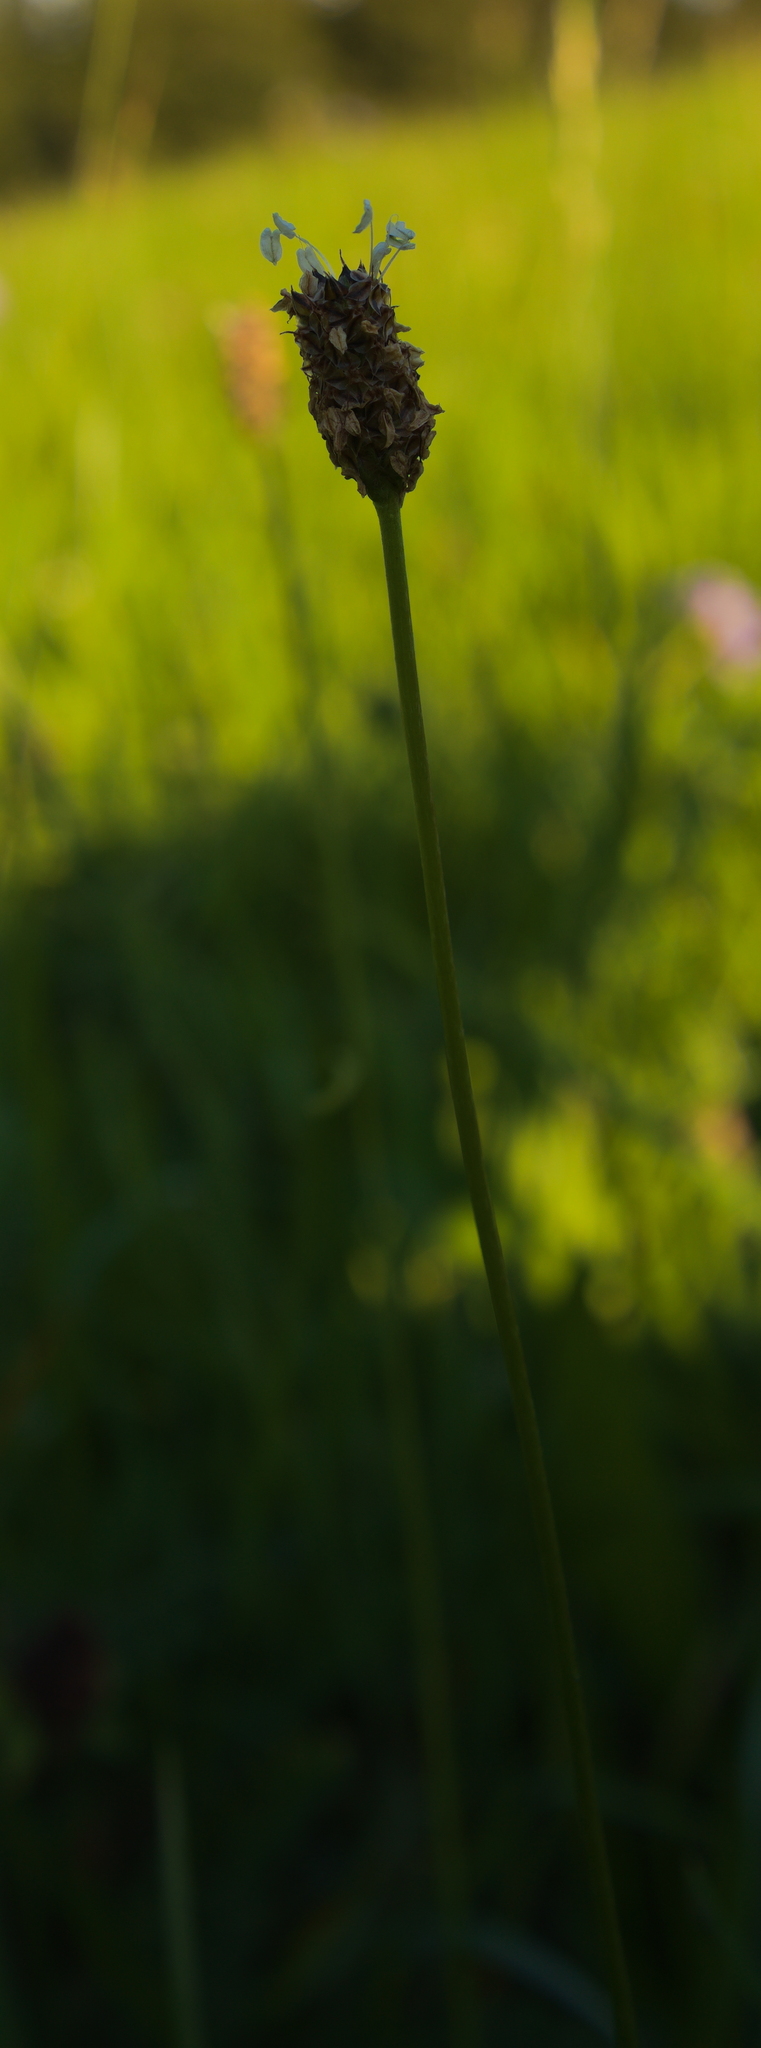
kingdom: Plantae
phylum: Tracheophyta
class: Magnoliopsida
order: Lamiales
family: Plantaginaceae
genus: Plantago
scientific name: Plantago lanceolata
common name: Ribwort plantain
